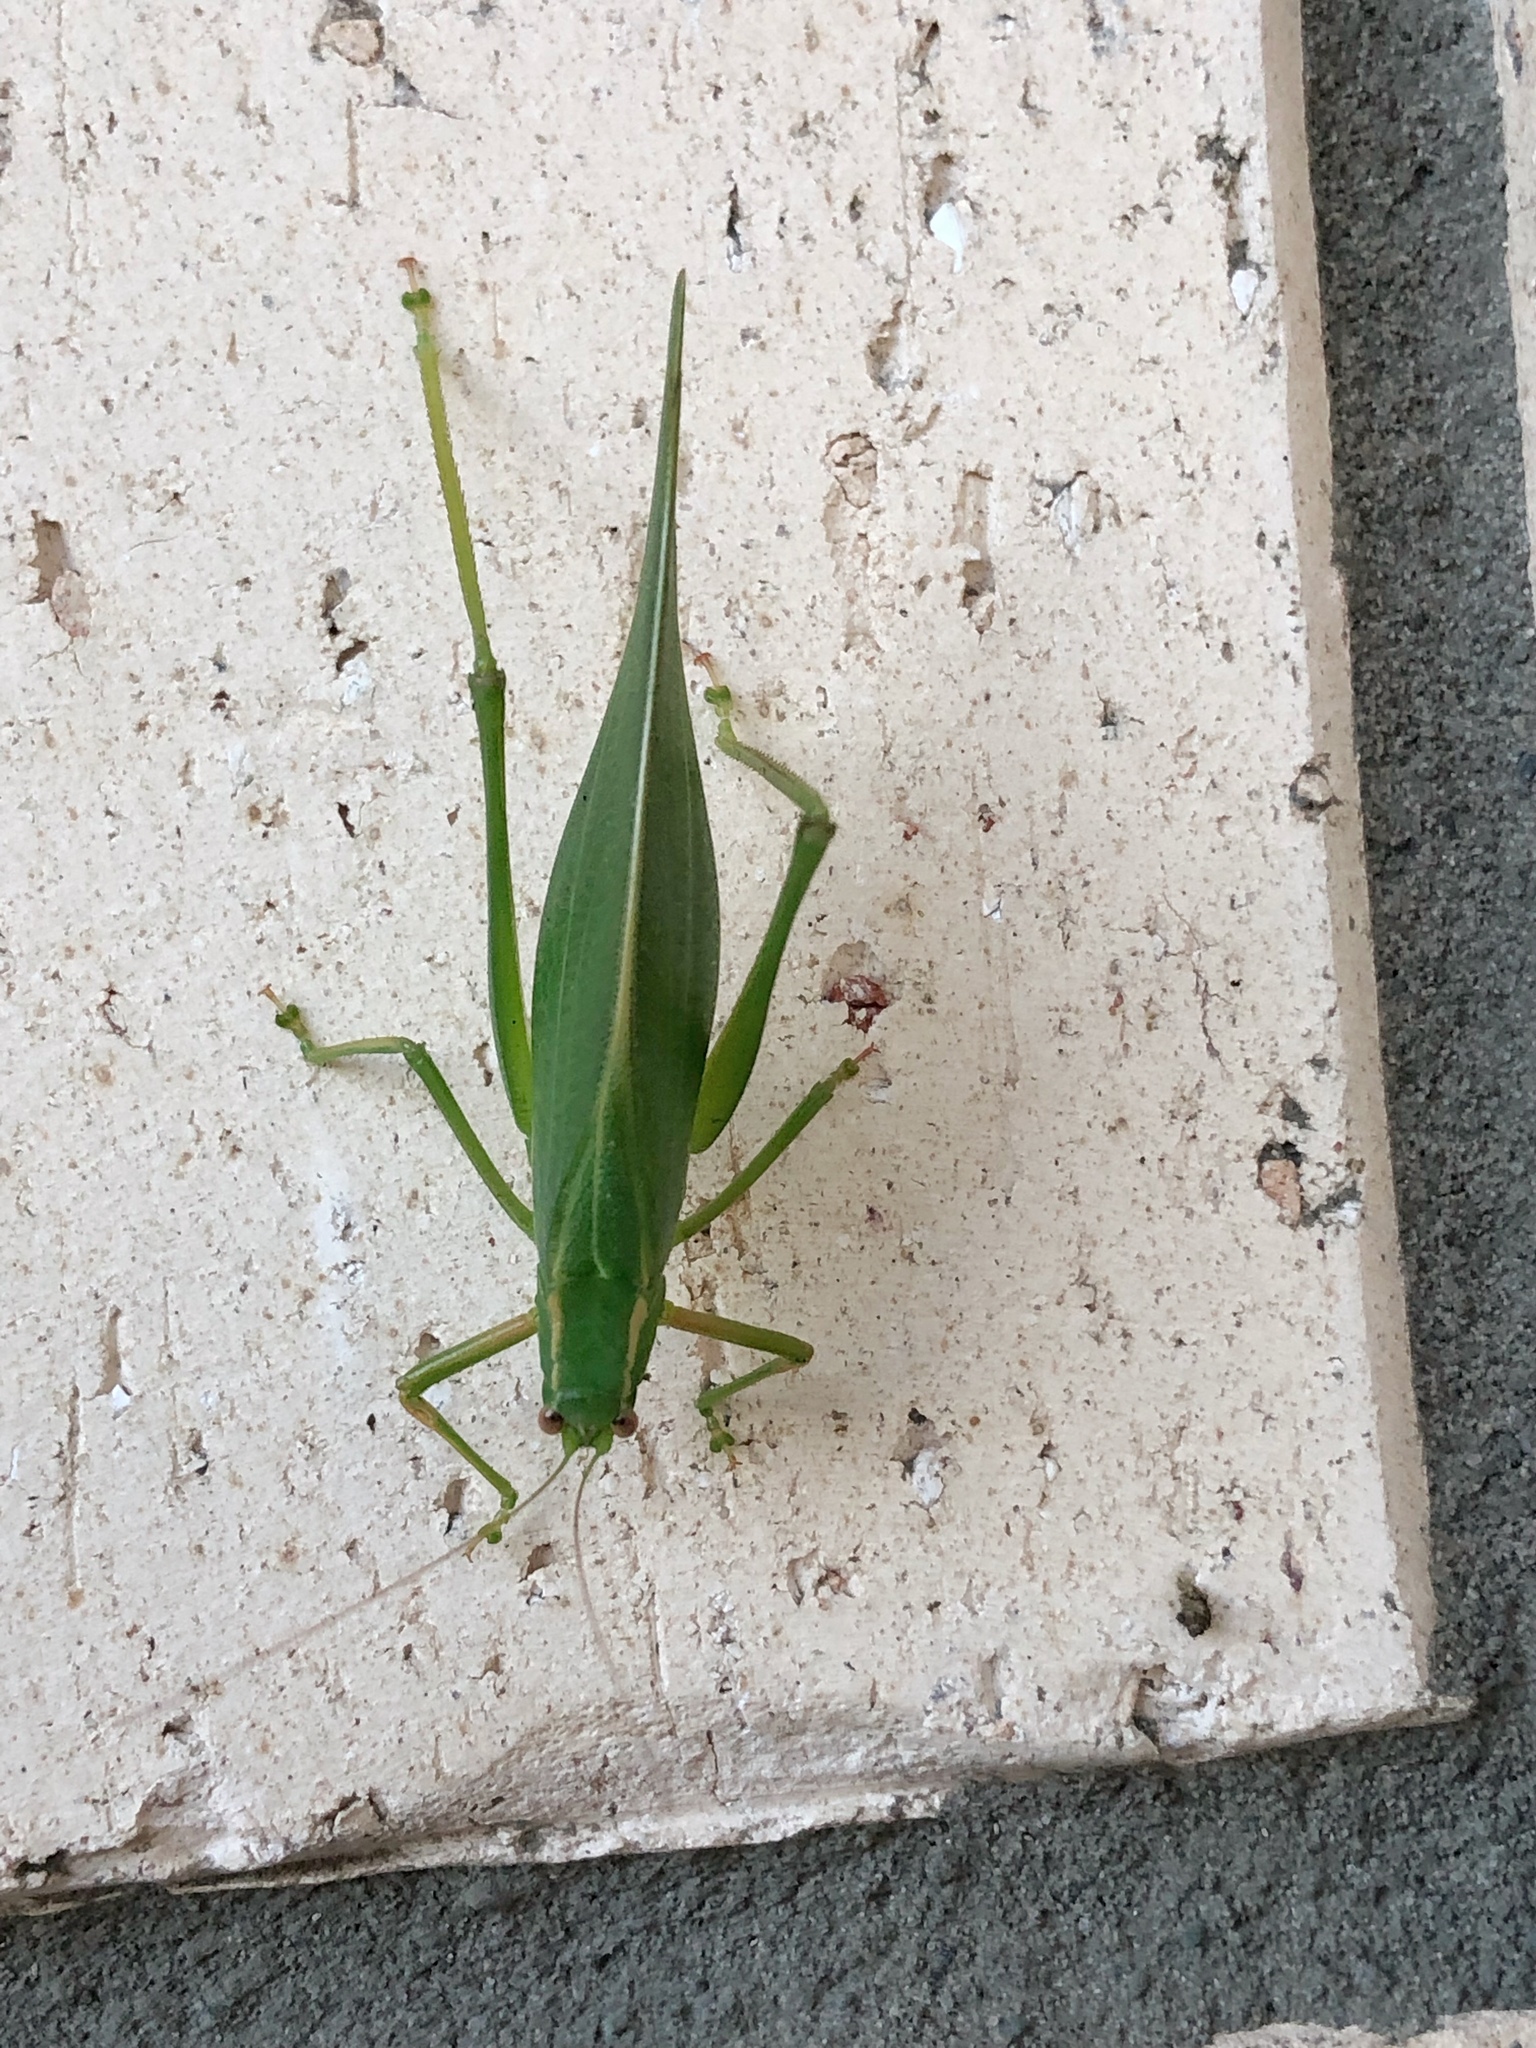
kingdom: Animalia
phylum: Arthropoda
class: Insecta
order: Orthoptera
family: Tettigoniidae
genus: Caedicia
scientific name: Caedicia simplex
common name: Common garden katydid
